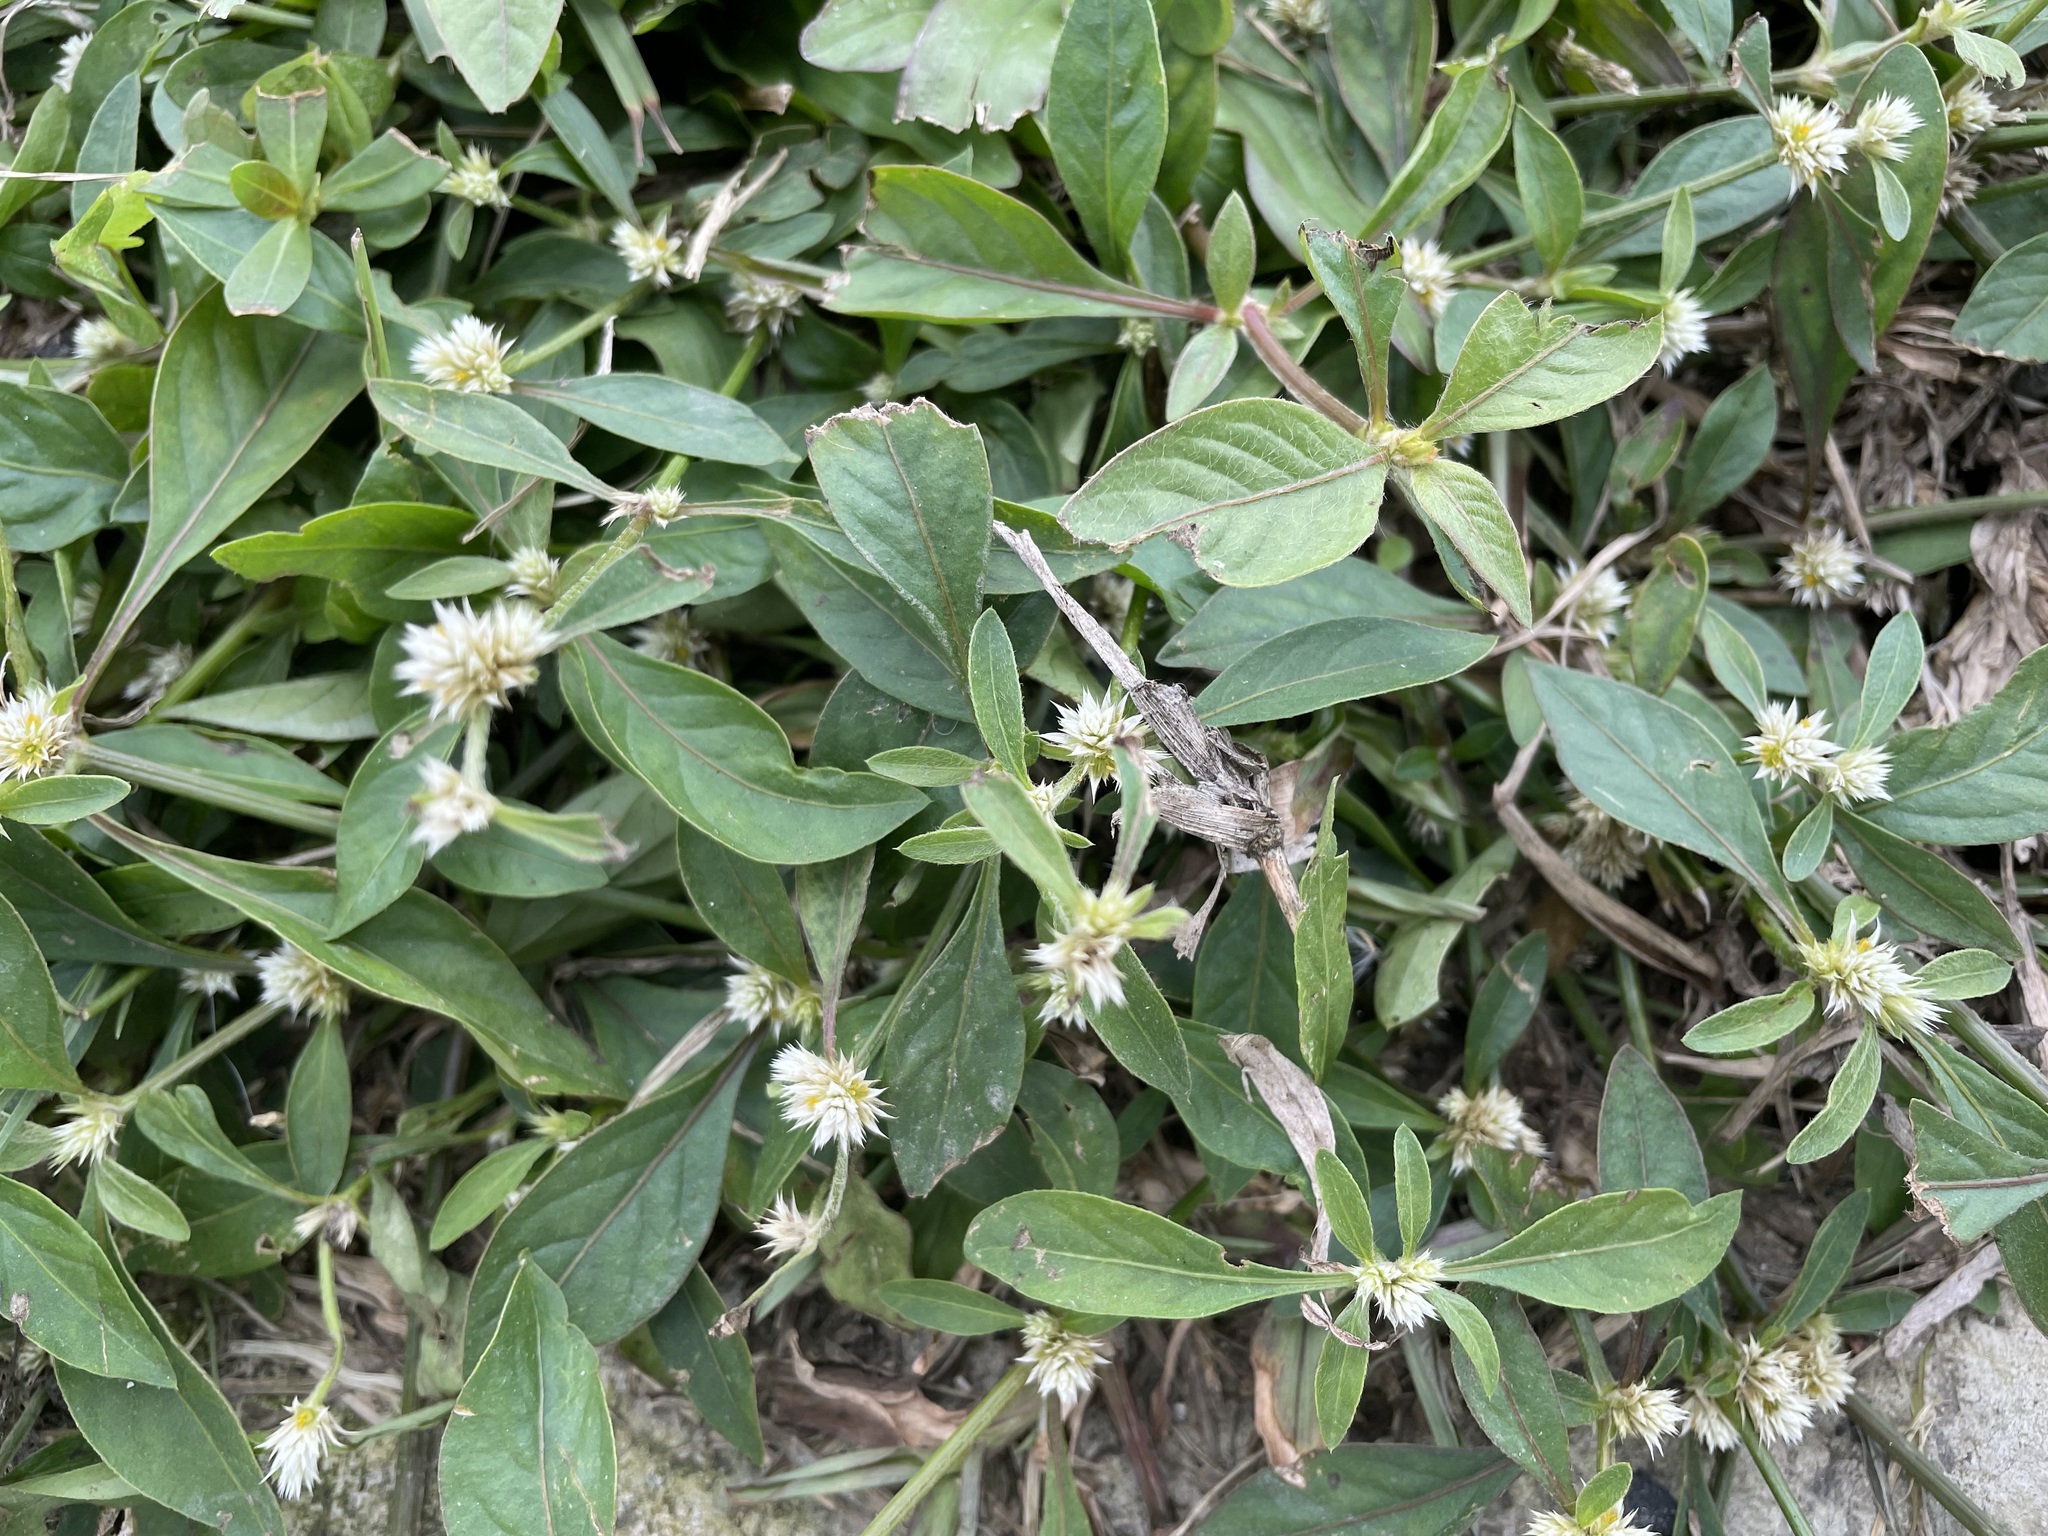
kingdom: Plantae
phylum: Tracheophyta
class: Magnoliopsida
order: Caryophyllales
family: Amaranthaceae
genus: Alternanthera
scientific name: Alternanthera bettzickiana
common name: Calico-plant
